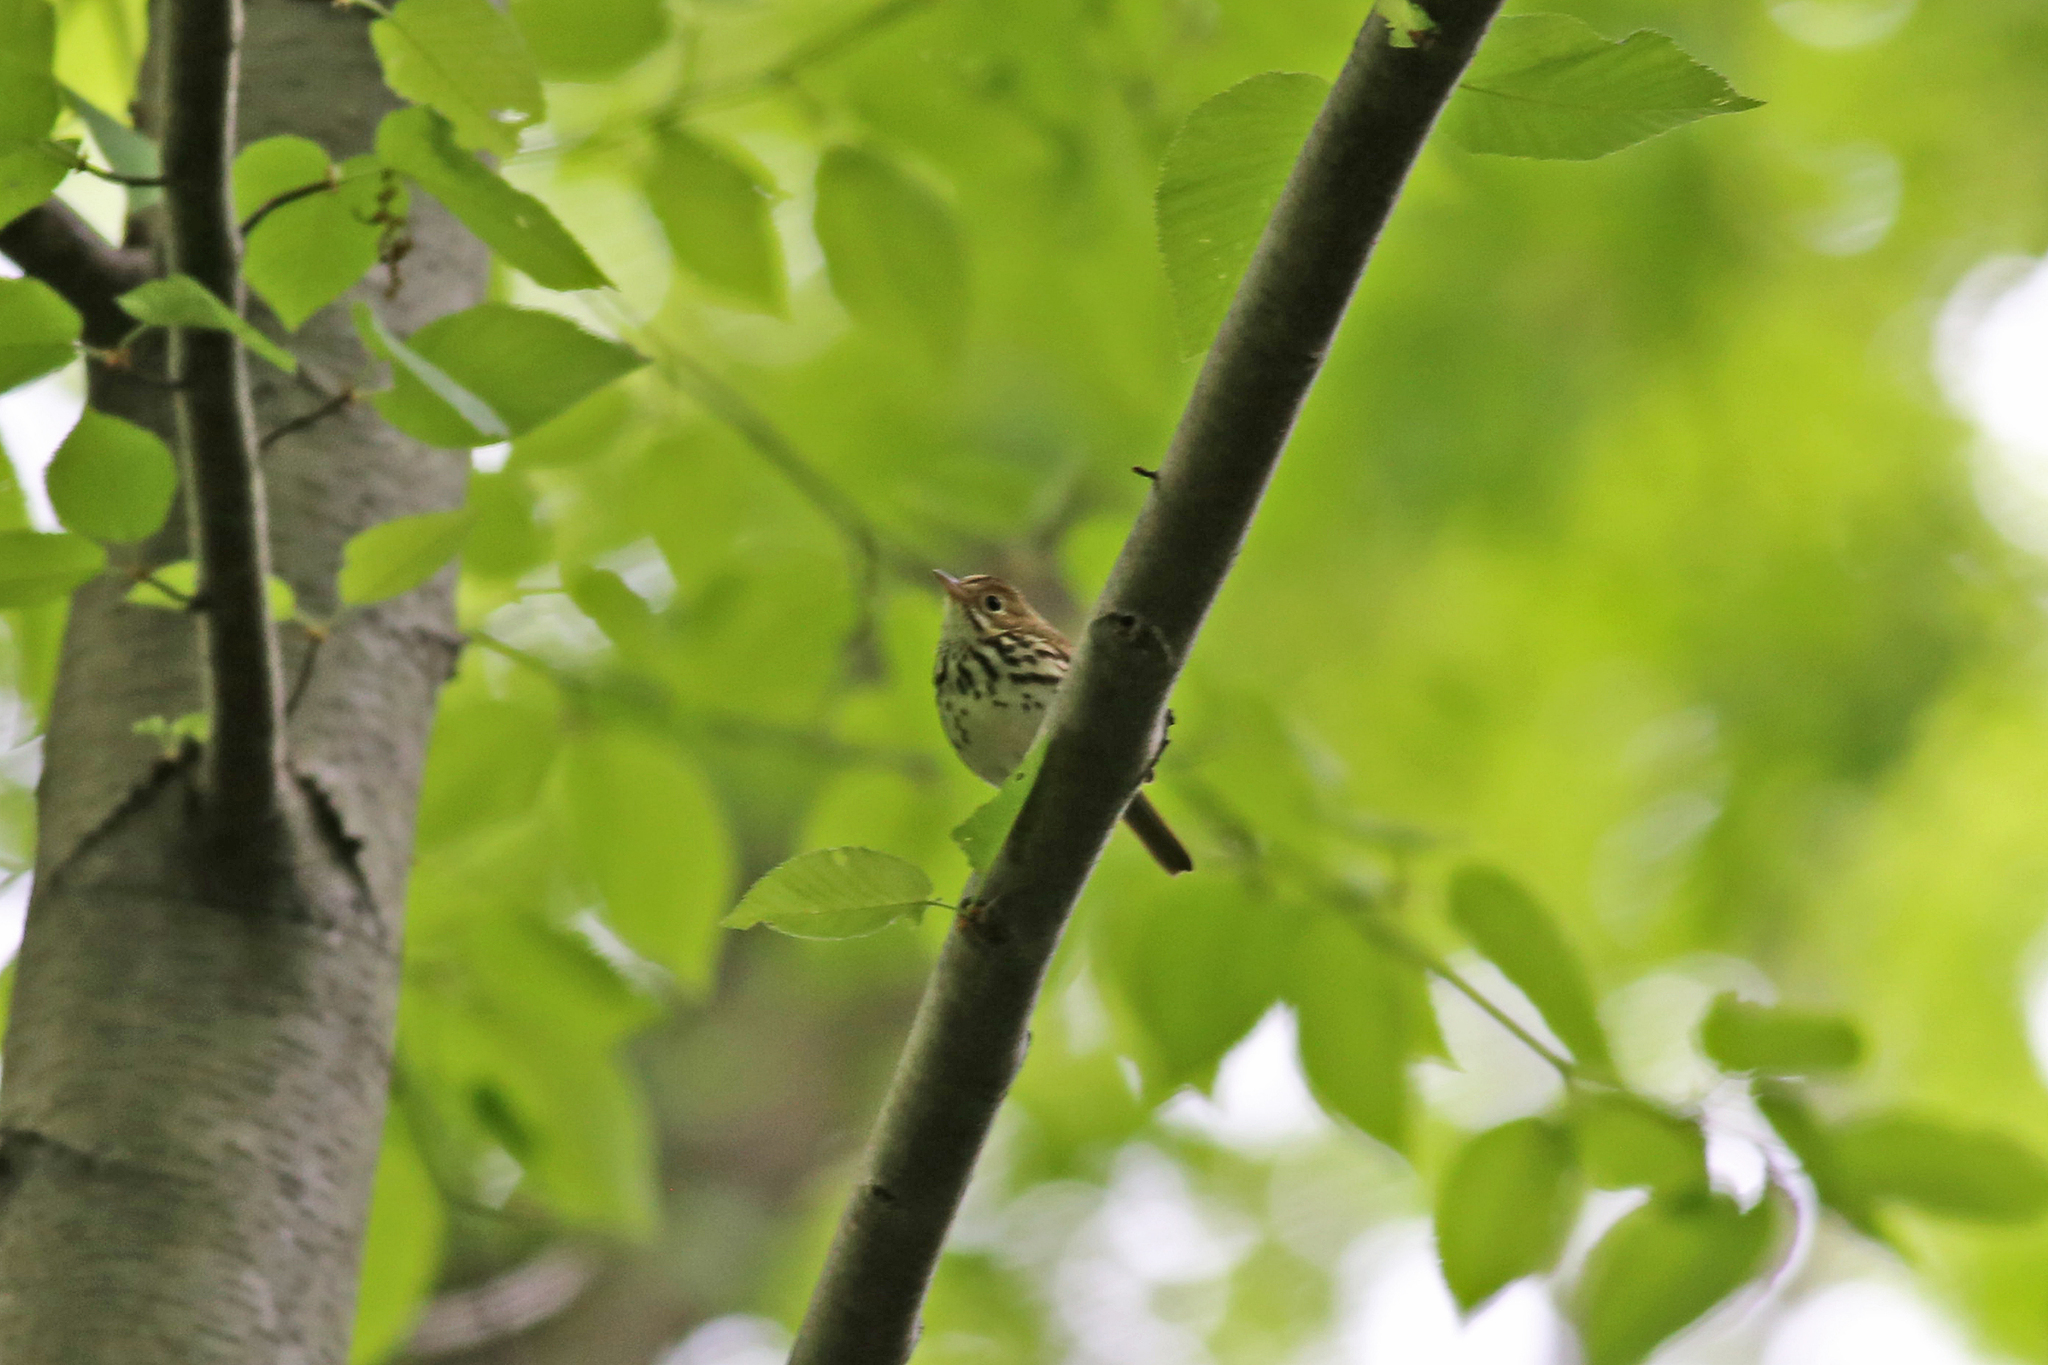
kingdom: Animalia
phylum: Chordata
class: Aves
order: Passeriformes
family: Parulidae
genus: Seiurus
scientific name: Seiurus aurocapilla
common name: Ovenbird
